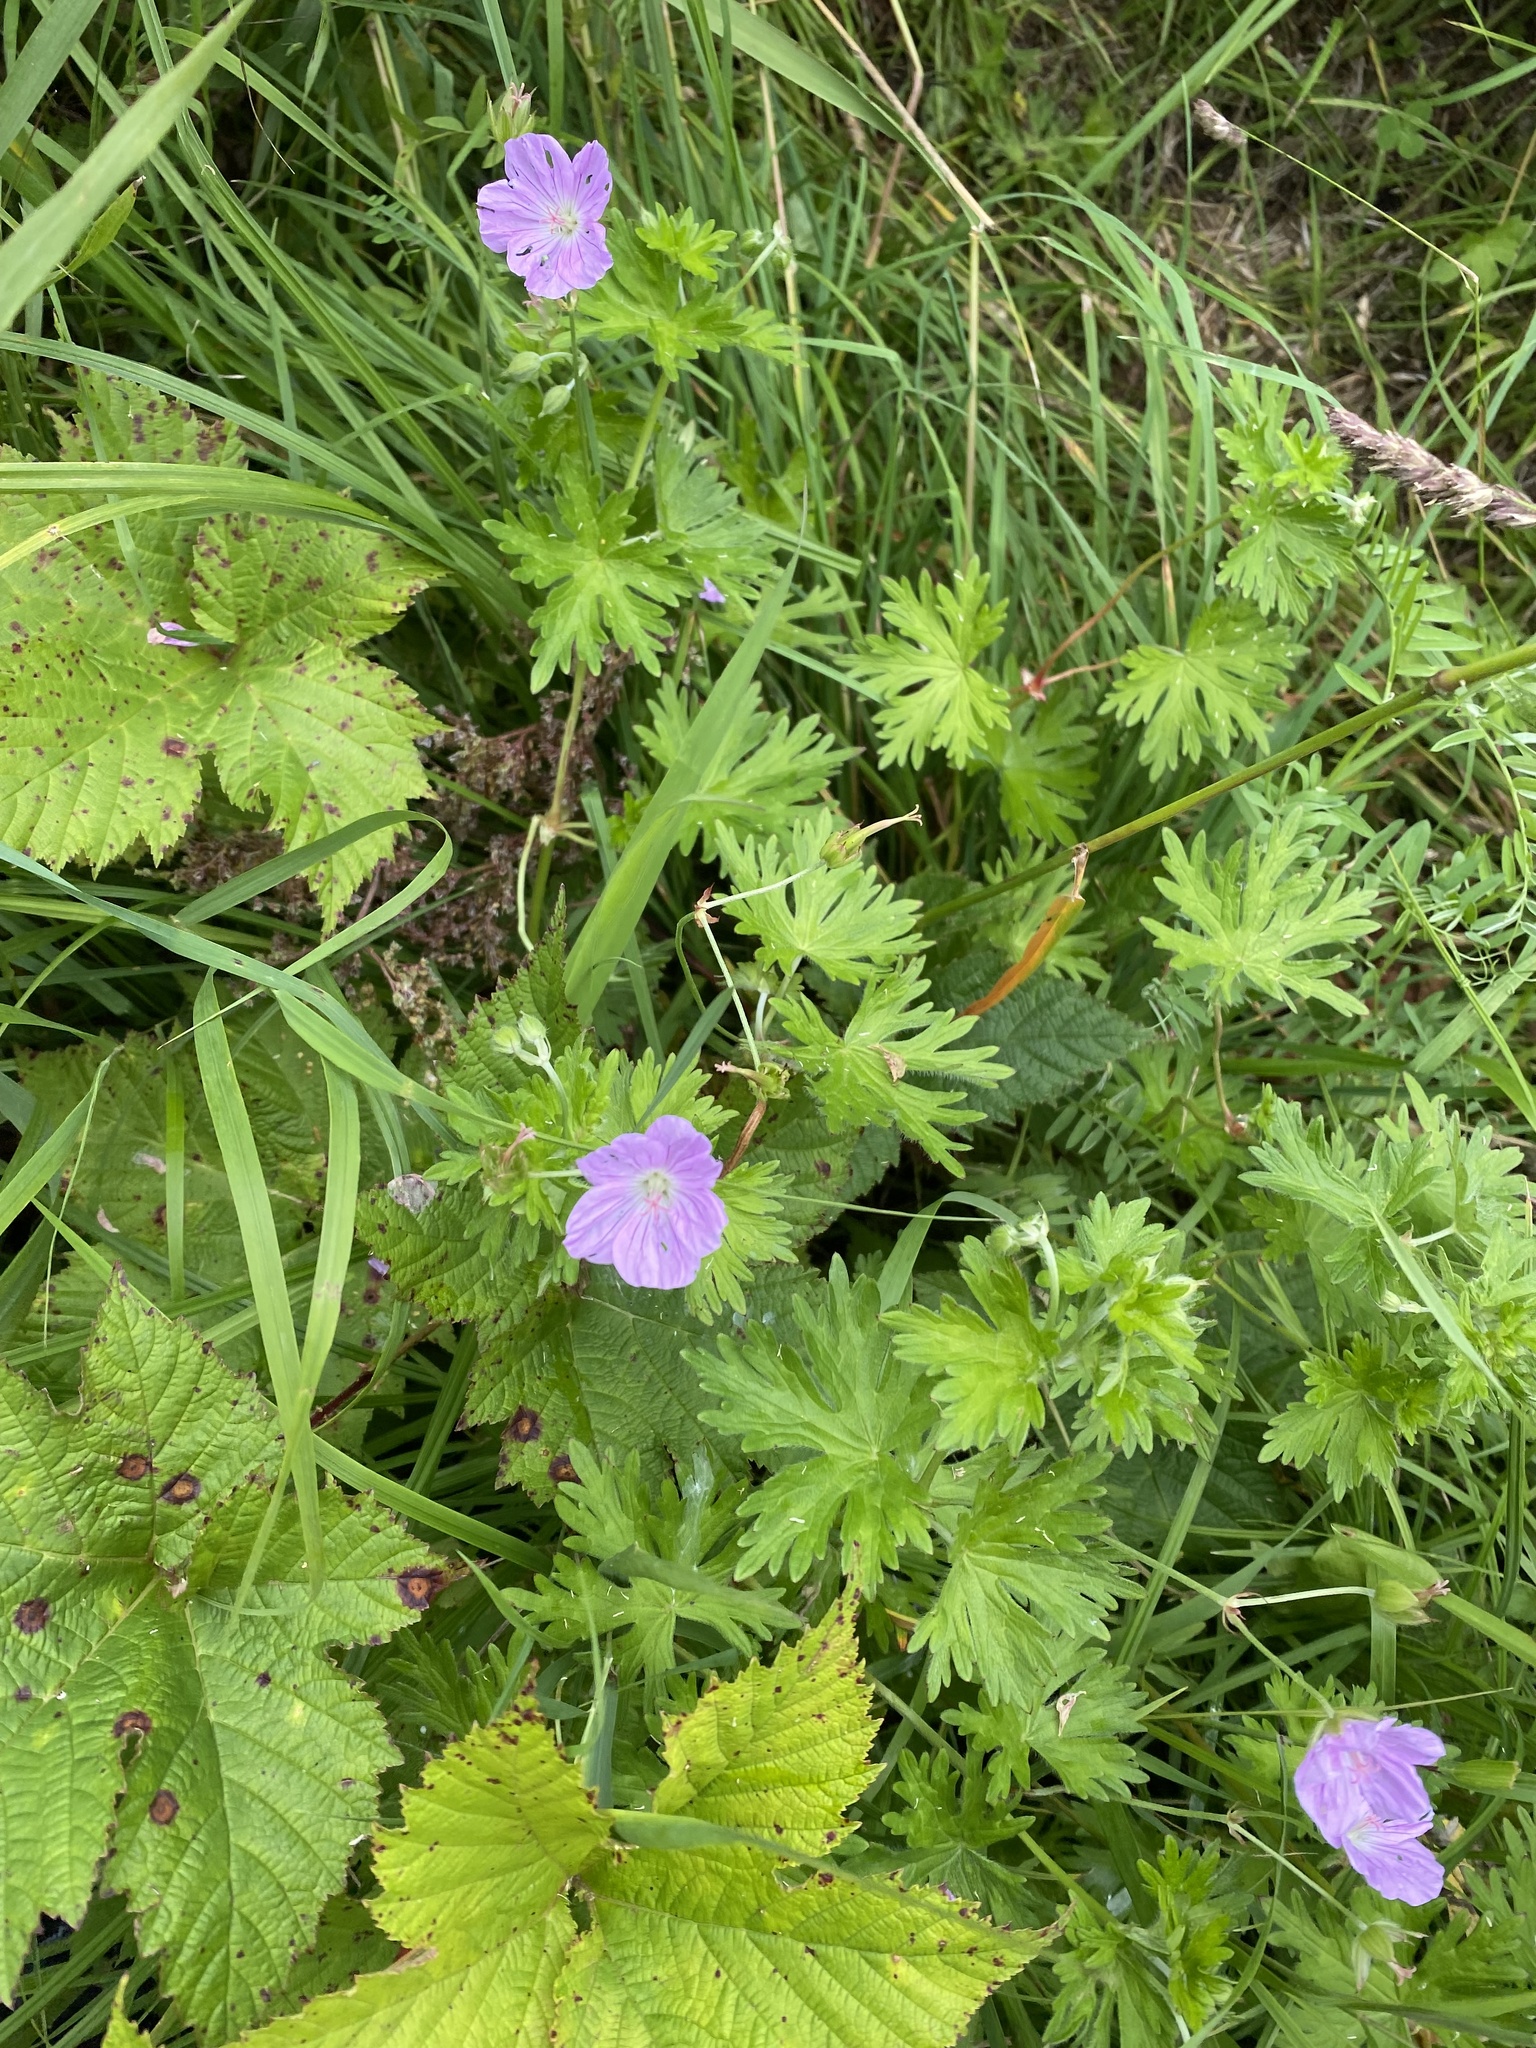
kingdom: Plantae
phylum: Tracheophyta
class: Magnoliopsida
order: Geraniales
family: Geraniaceae
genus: Geranium
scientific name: Geranium yesoense
